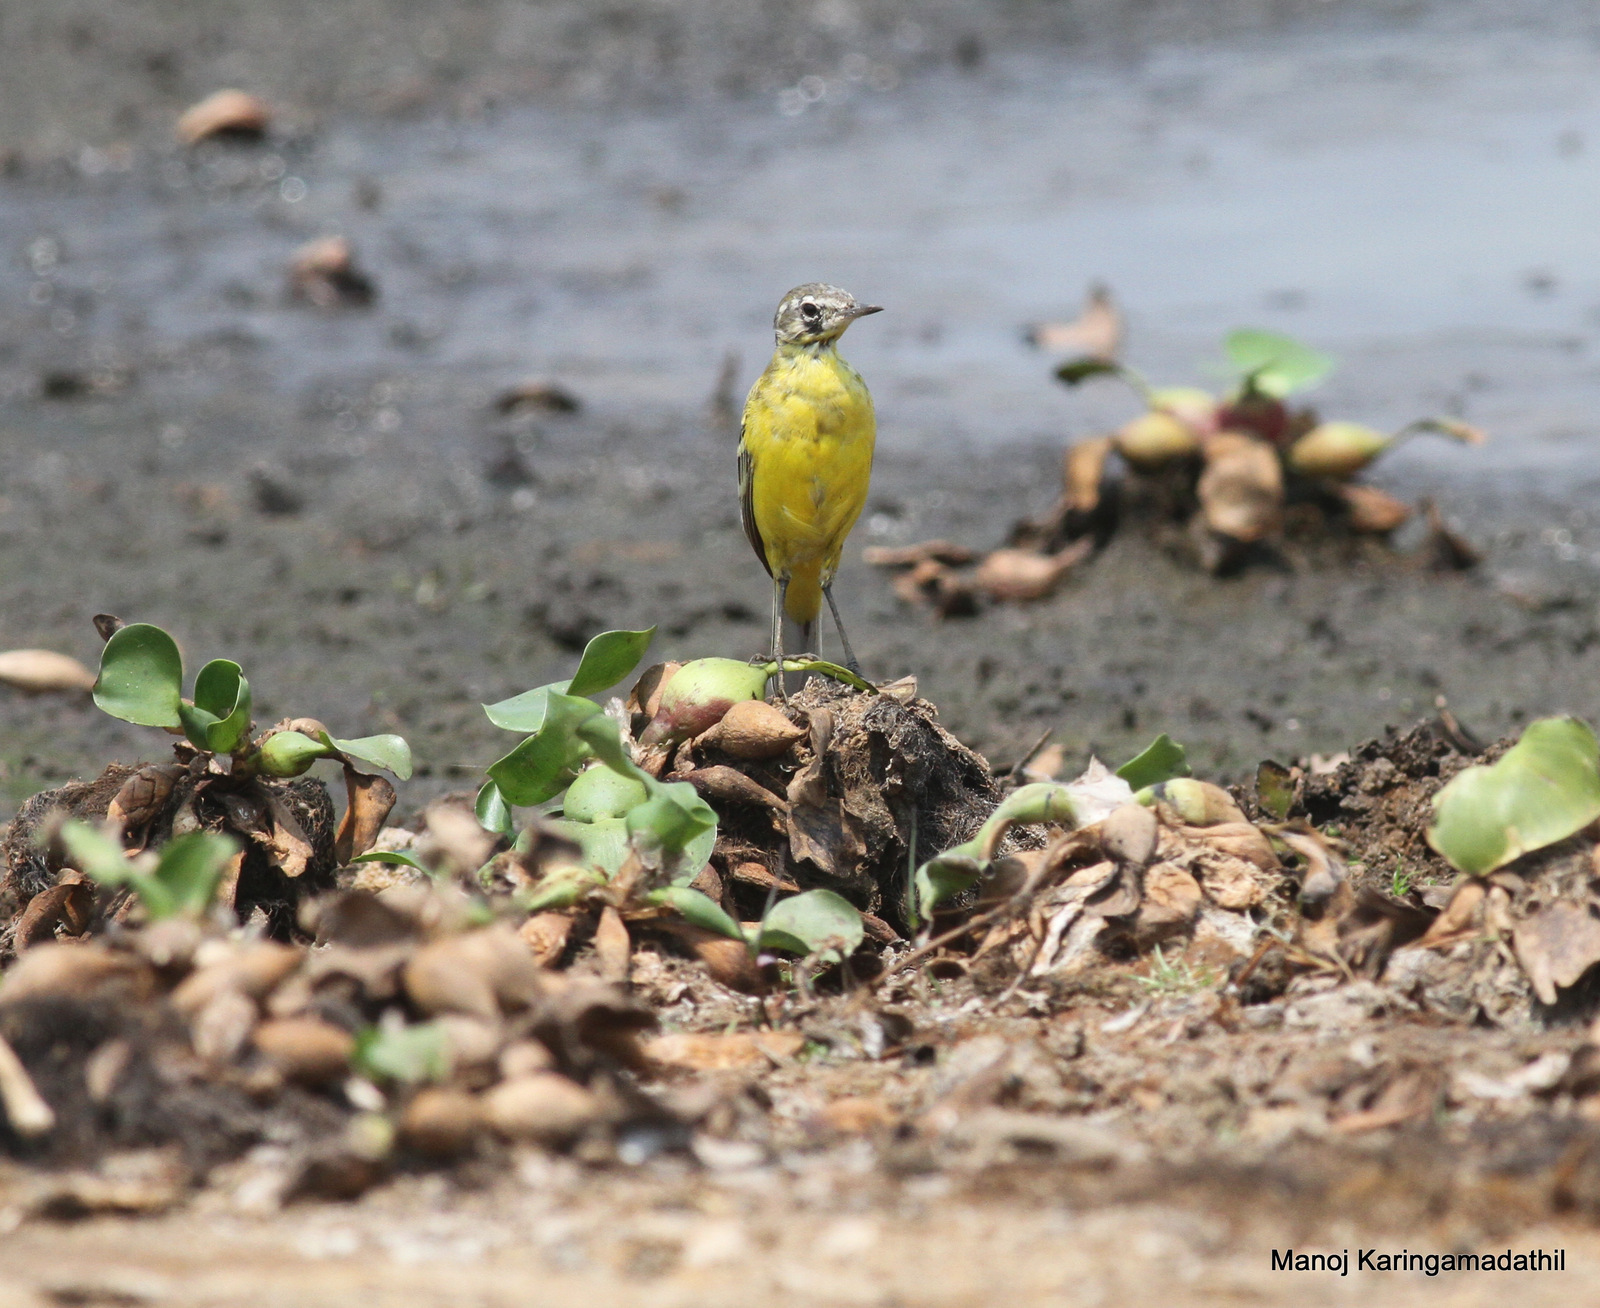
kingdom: Animalia
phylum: Chordata
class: Aves
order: Passeriformes
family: Motacillidae
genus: Motacilla
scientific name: Motacilla flava
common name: Western yellow wagtail
